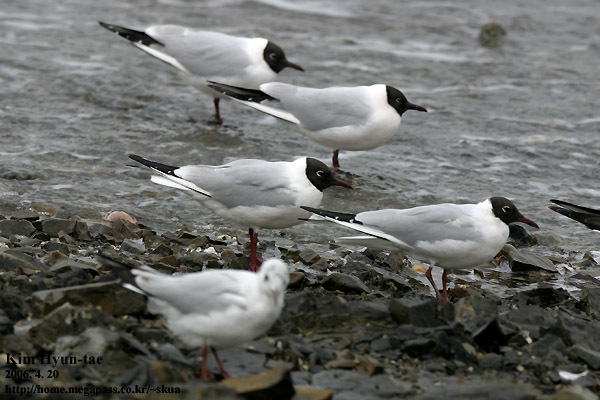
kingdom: Animalia
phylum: Chordata
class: Aves
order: Charadriiformes
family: Laridae
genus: Chroicocephalus
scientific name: Chroicocephalus ridibundus
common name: Black-headed gull
